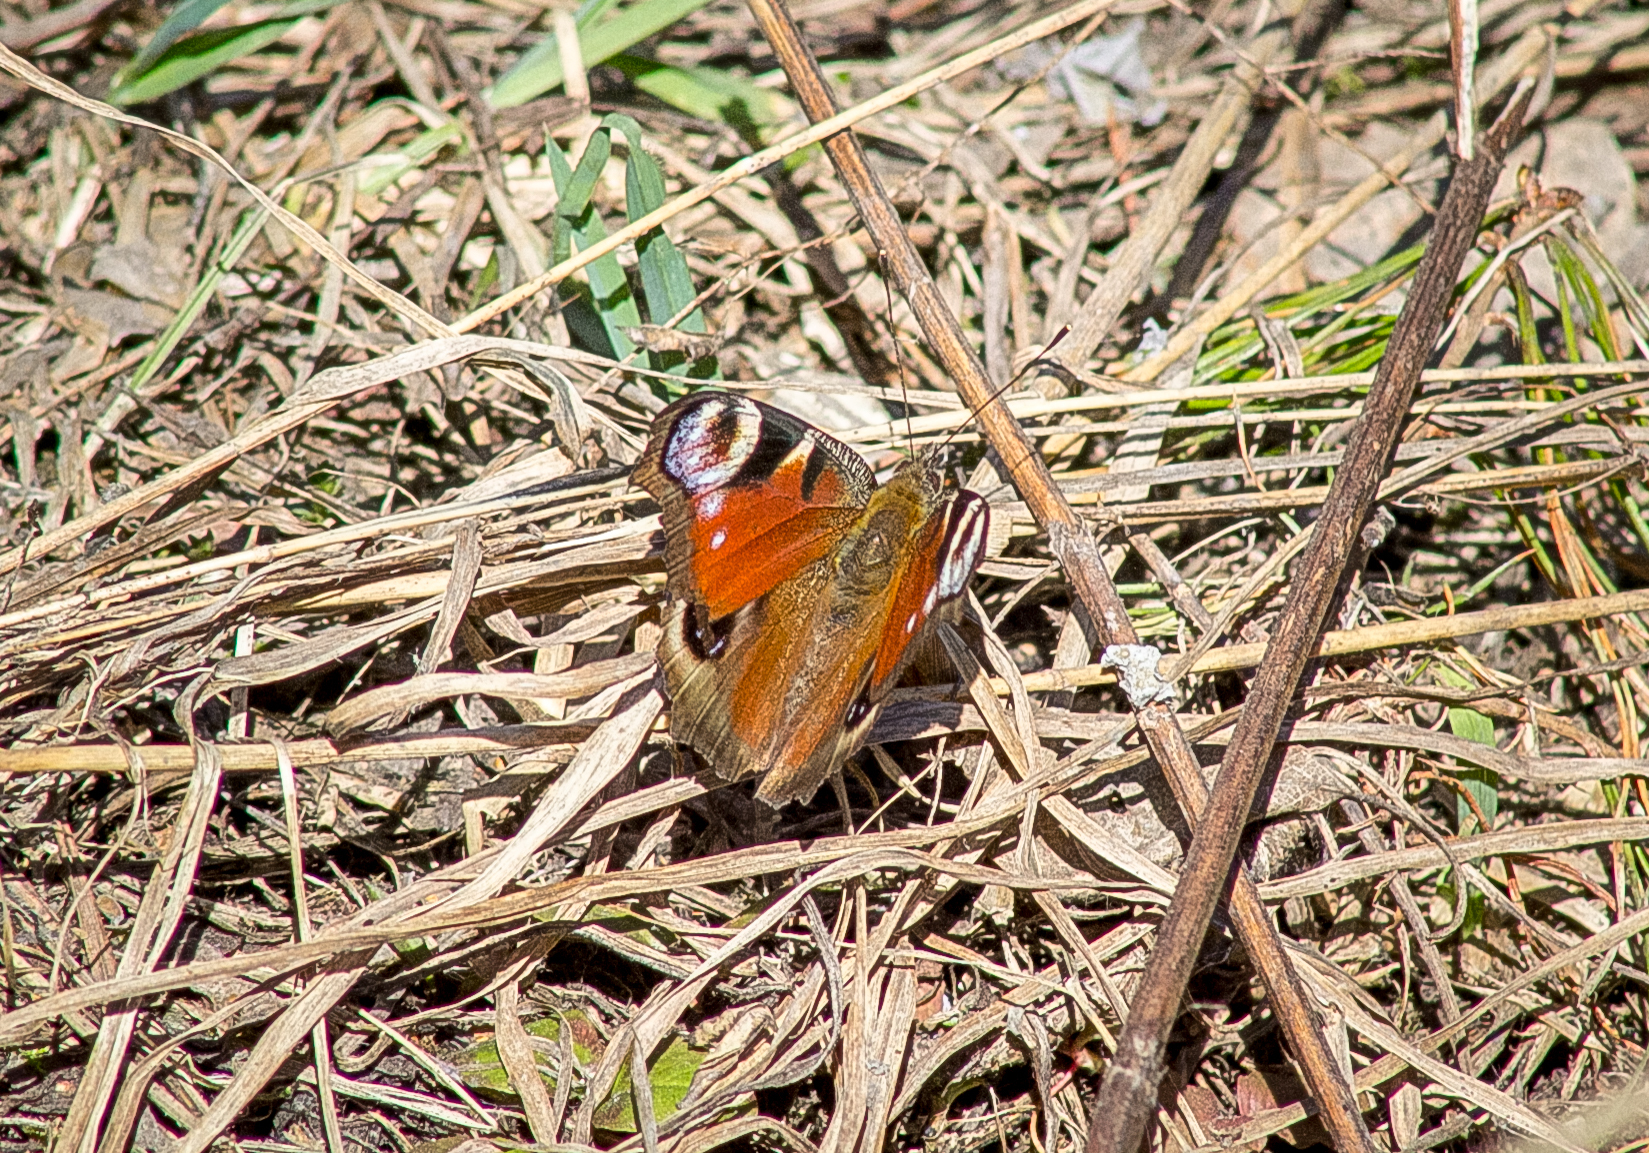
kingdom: Animalia
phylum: Arthropoda
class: Insecta
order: Lepidoptera
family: Nymphalidae
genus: Aglais
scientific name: Aglais io
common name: Peacock
